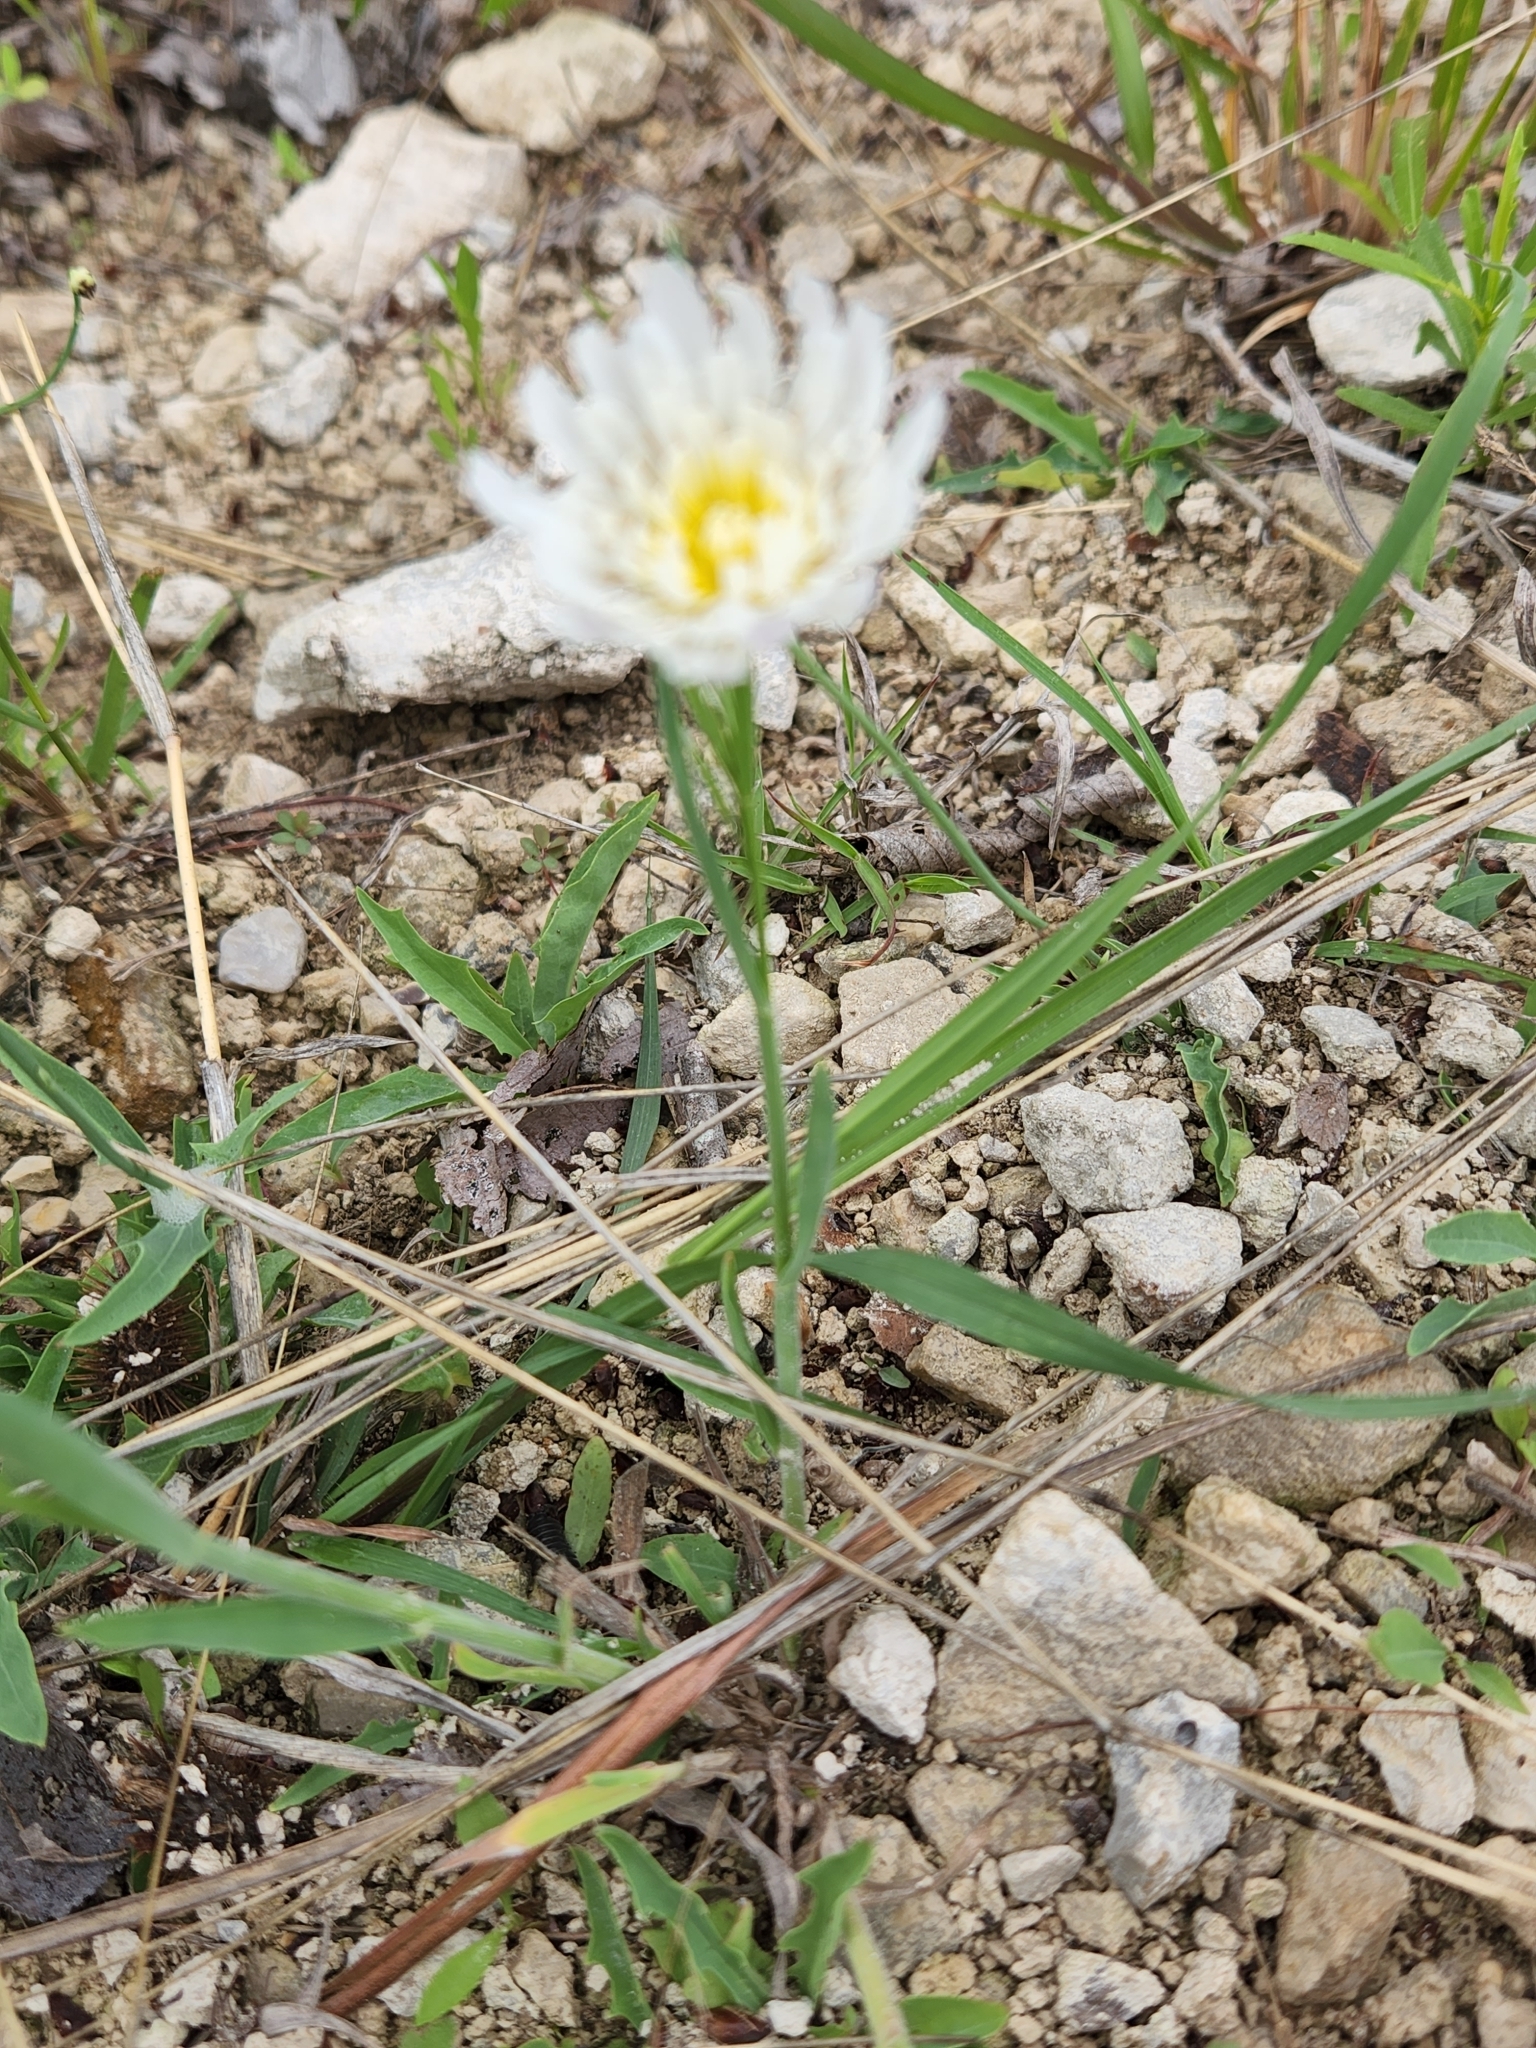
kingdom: Plantae
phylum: Tracheophyta
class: Magnoliopsida
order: Asterales
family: Asteraceae
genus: Pinaropappus
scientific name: Pinaropappus roseus
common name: Rock-lettuce
